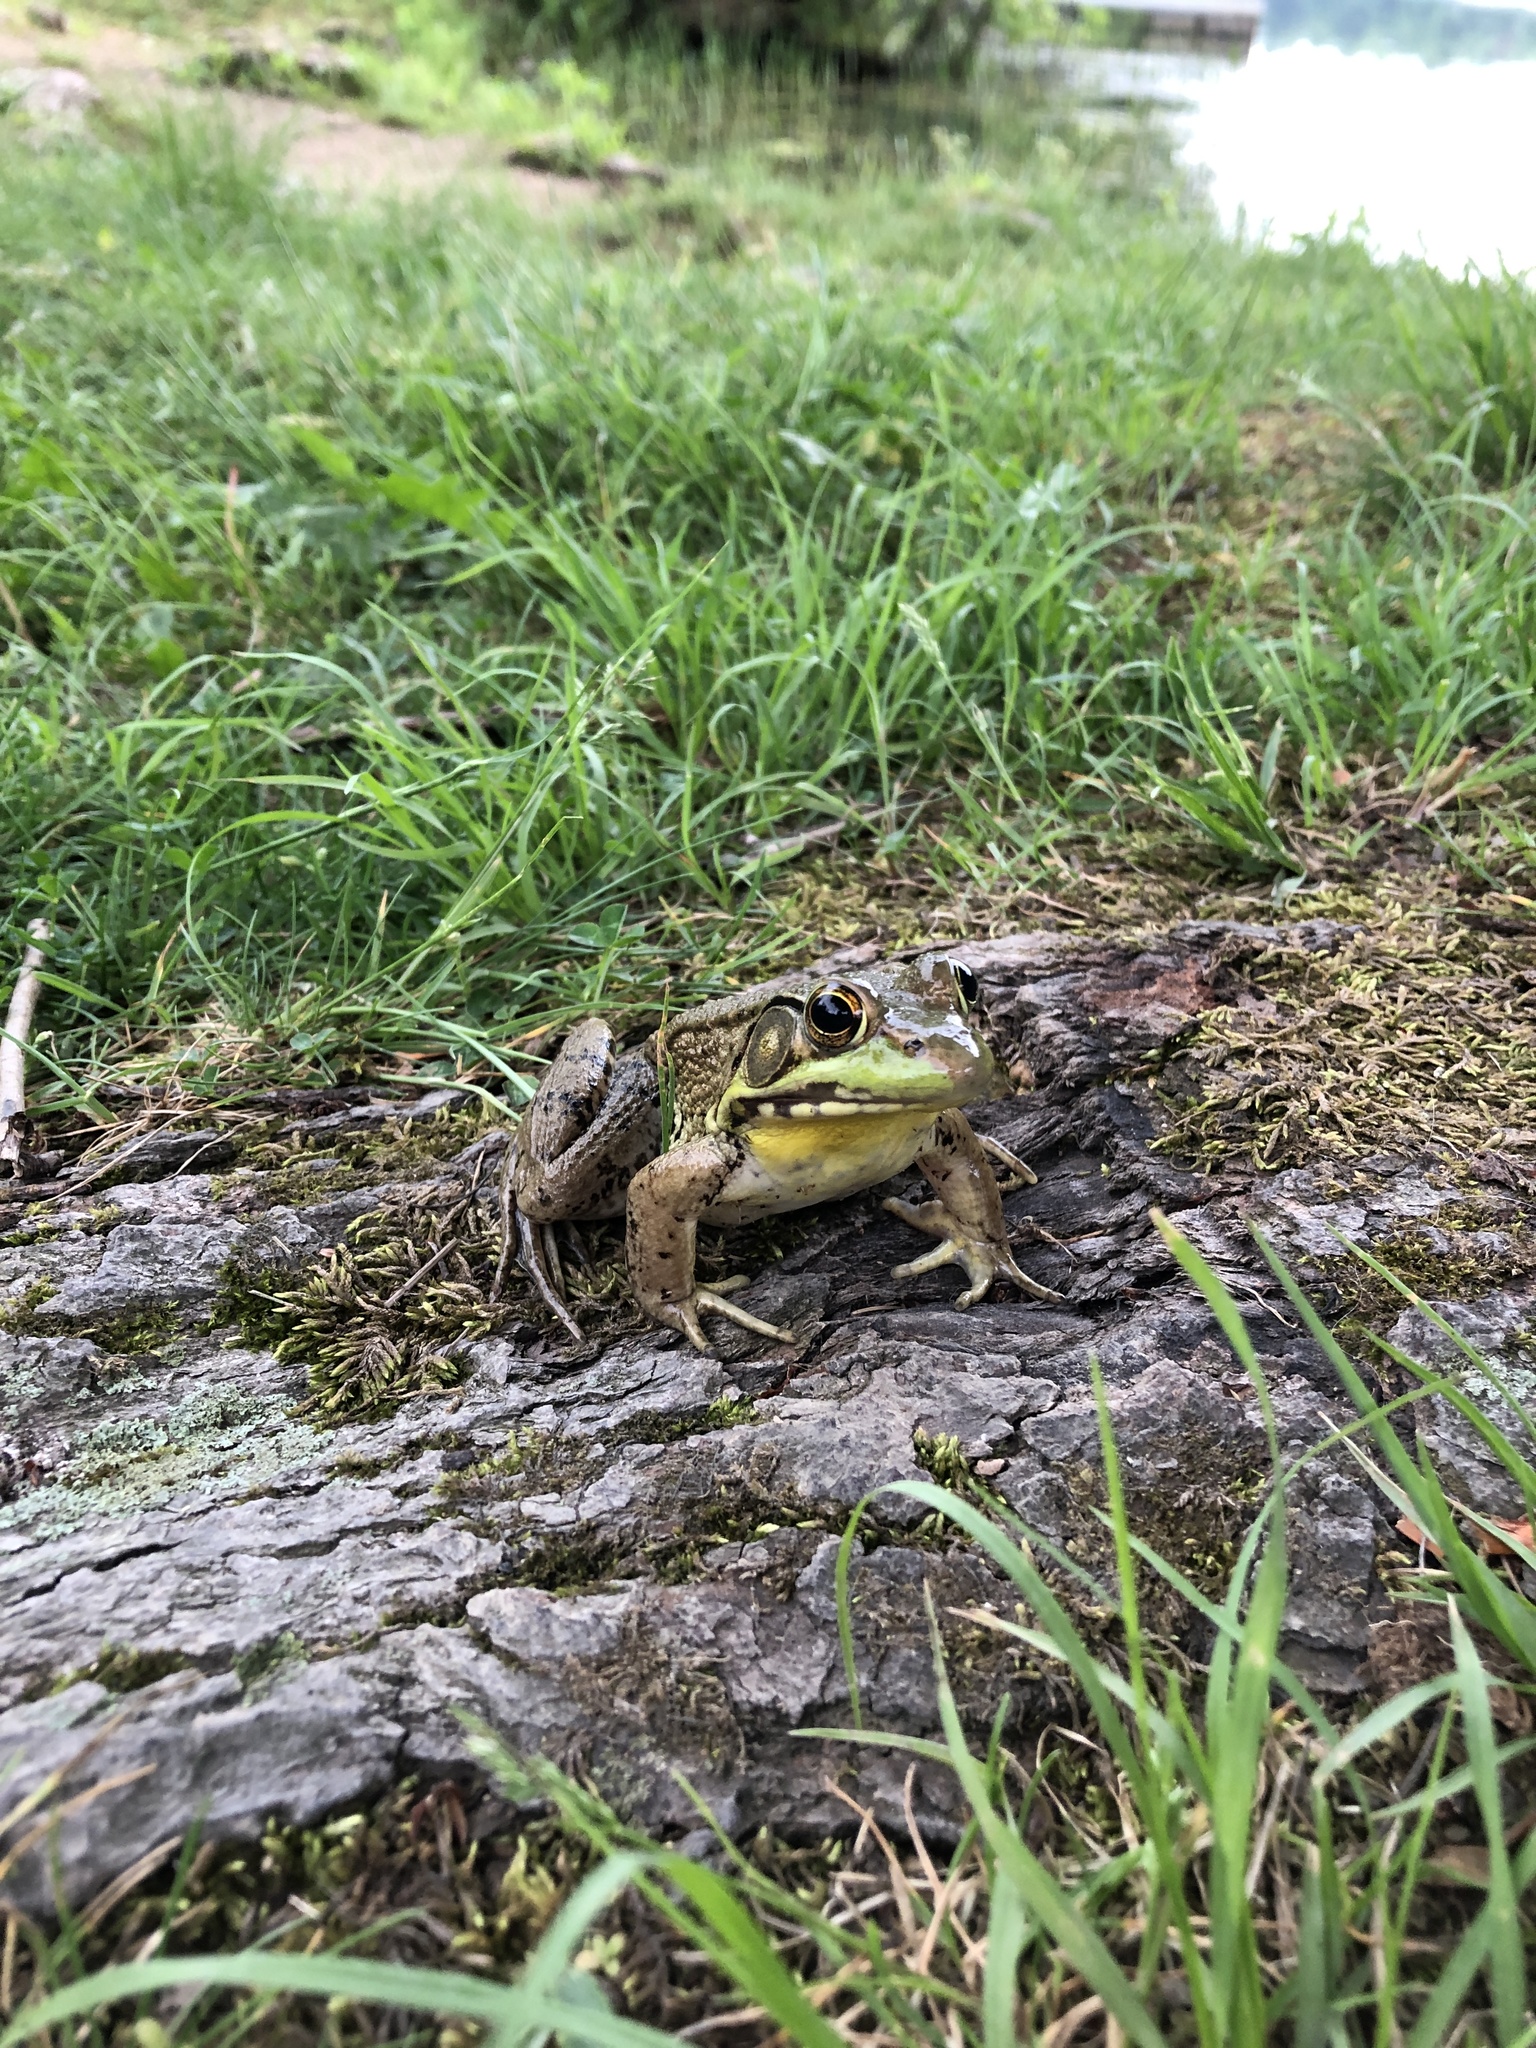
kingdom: Animalia
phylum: Chordata
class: Amphibia
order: Anura
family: Ranidae
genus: Lithobates
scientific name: Lithobates clamitans
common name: Green frog
